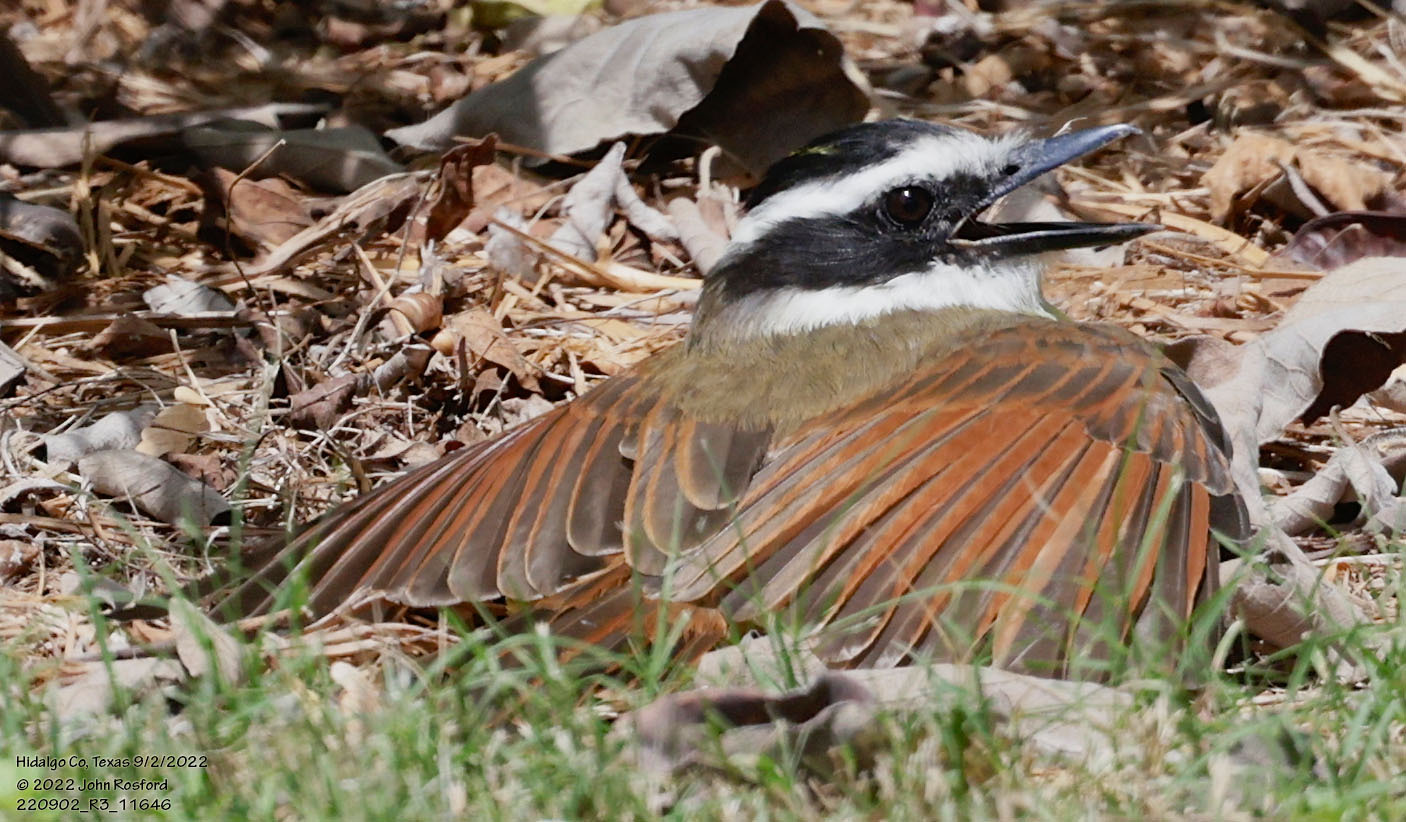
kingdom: Animalia
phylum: Chordata
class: Aves
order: Passeriformes
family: Tyrannidae
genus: Pitangus
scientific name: Pitangus sulphuratus
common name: Great kiskadee
